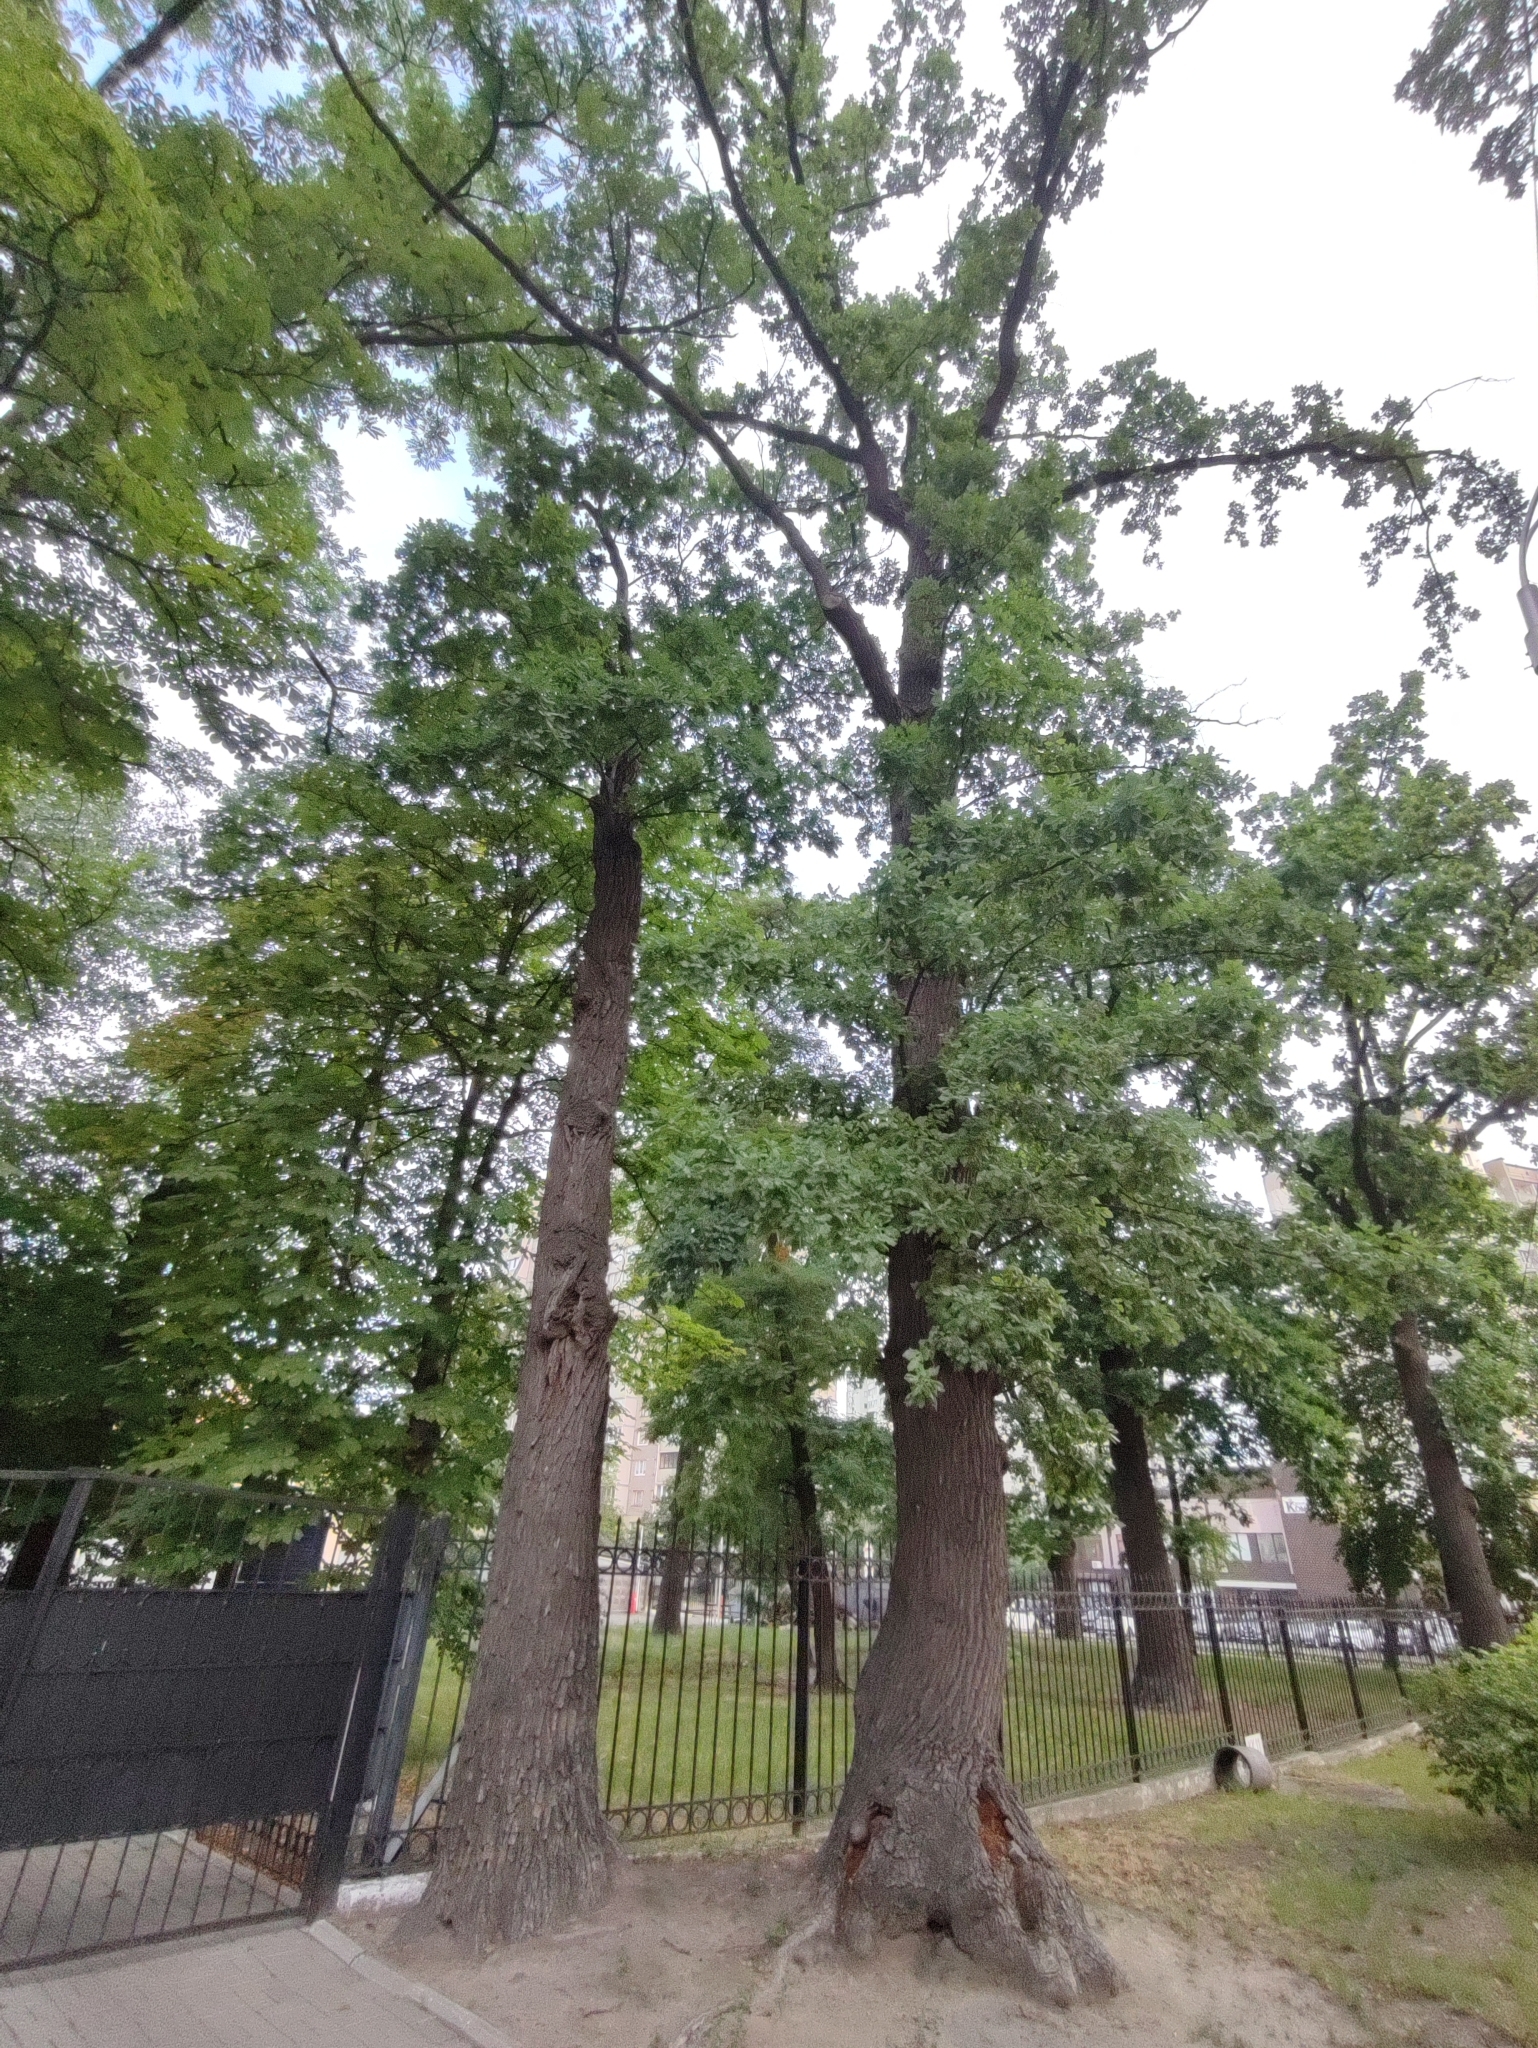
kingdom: Plantae
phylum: Tracheophyta
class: Magnoliopsida
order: Fagales
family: Fagaceae
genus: Quercus
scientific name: Quercus robur
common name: Pedunculate oak
